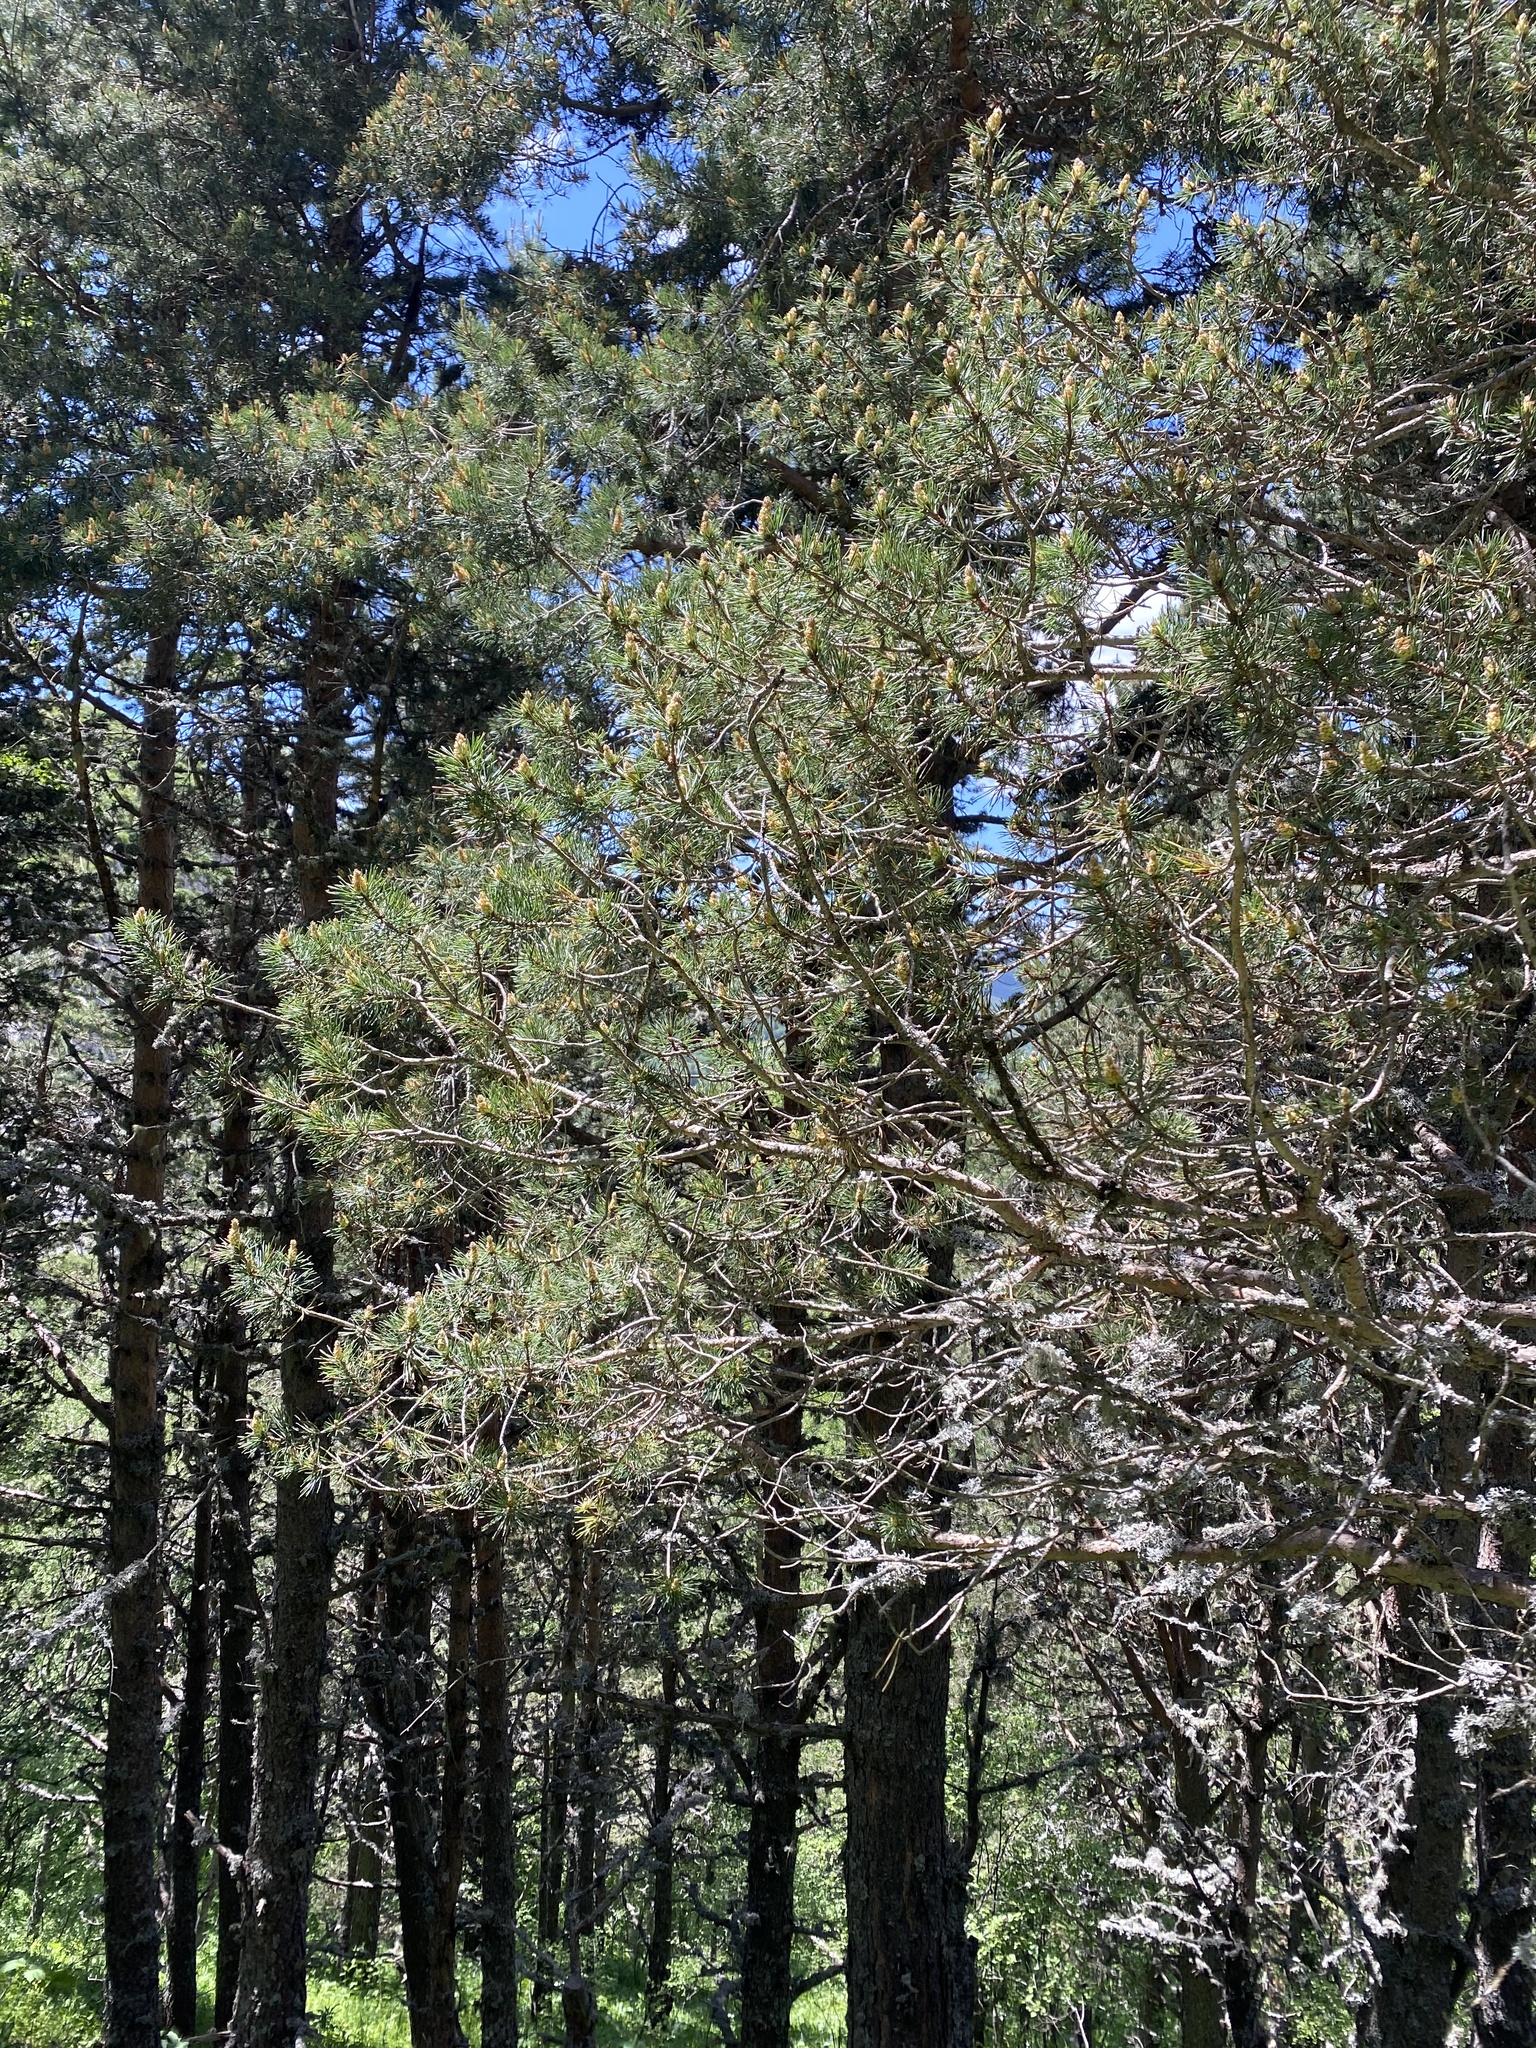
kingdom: Plantae
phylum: Tracheophyta
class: Pinopsida
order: Pinales
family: Pinaceae
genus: Pinus
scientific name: Pinus sylvestris
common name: Scots pine
